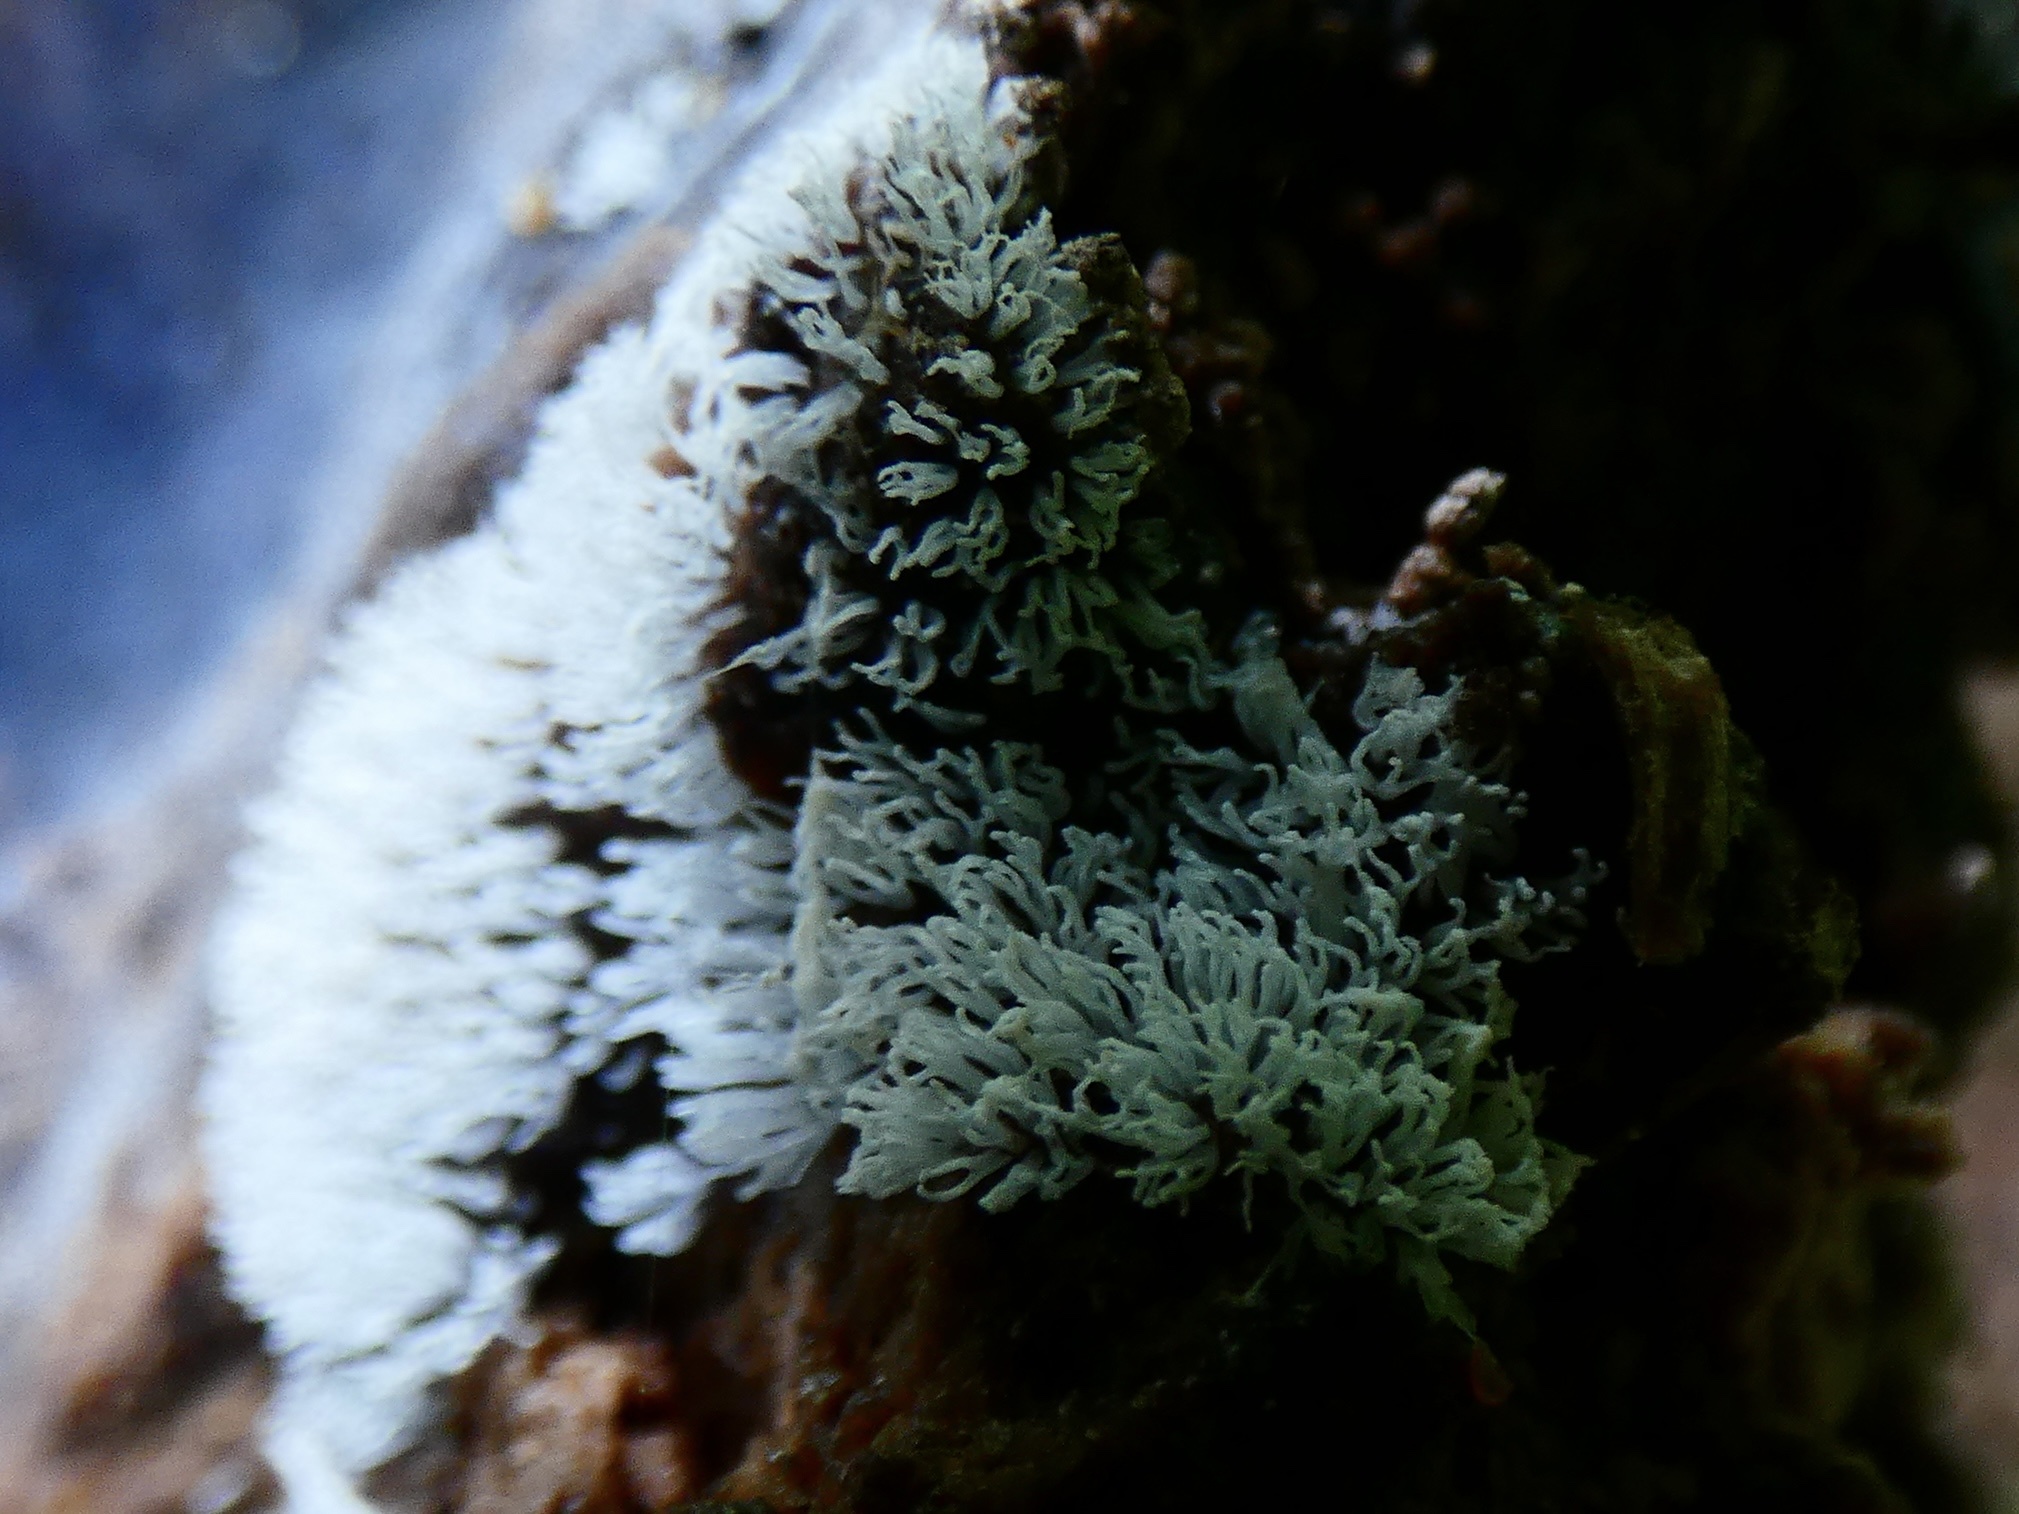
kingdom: Protozoa
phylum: Mycetozoa
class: Protosteliomycetes
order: Ceratiomyxales
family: Ceratiomyxaceae
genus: Ceratiomyxa
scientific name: Ceratiomyxa fruticulosa
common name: Honeycomb coral slime mold
